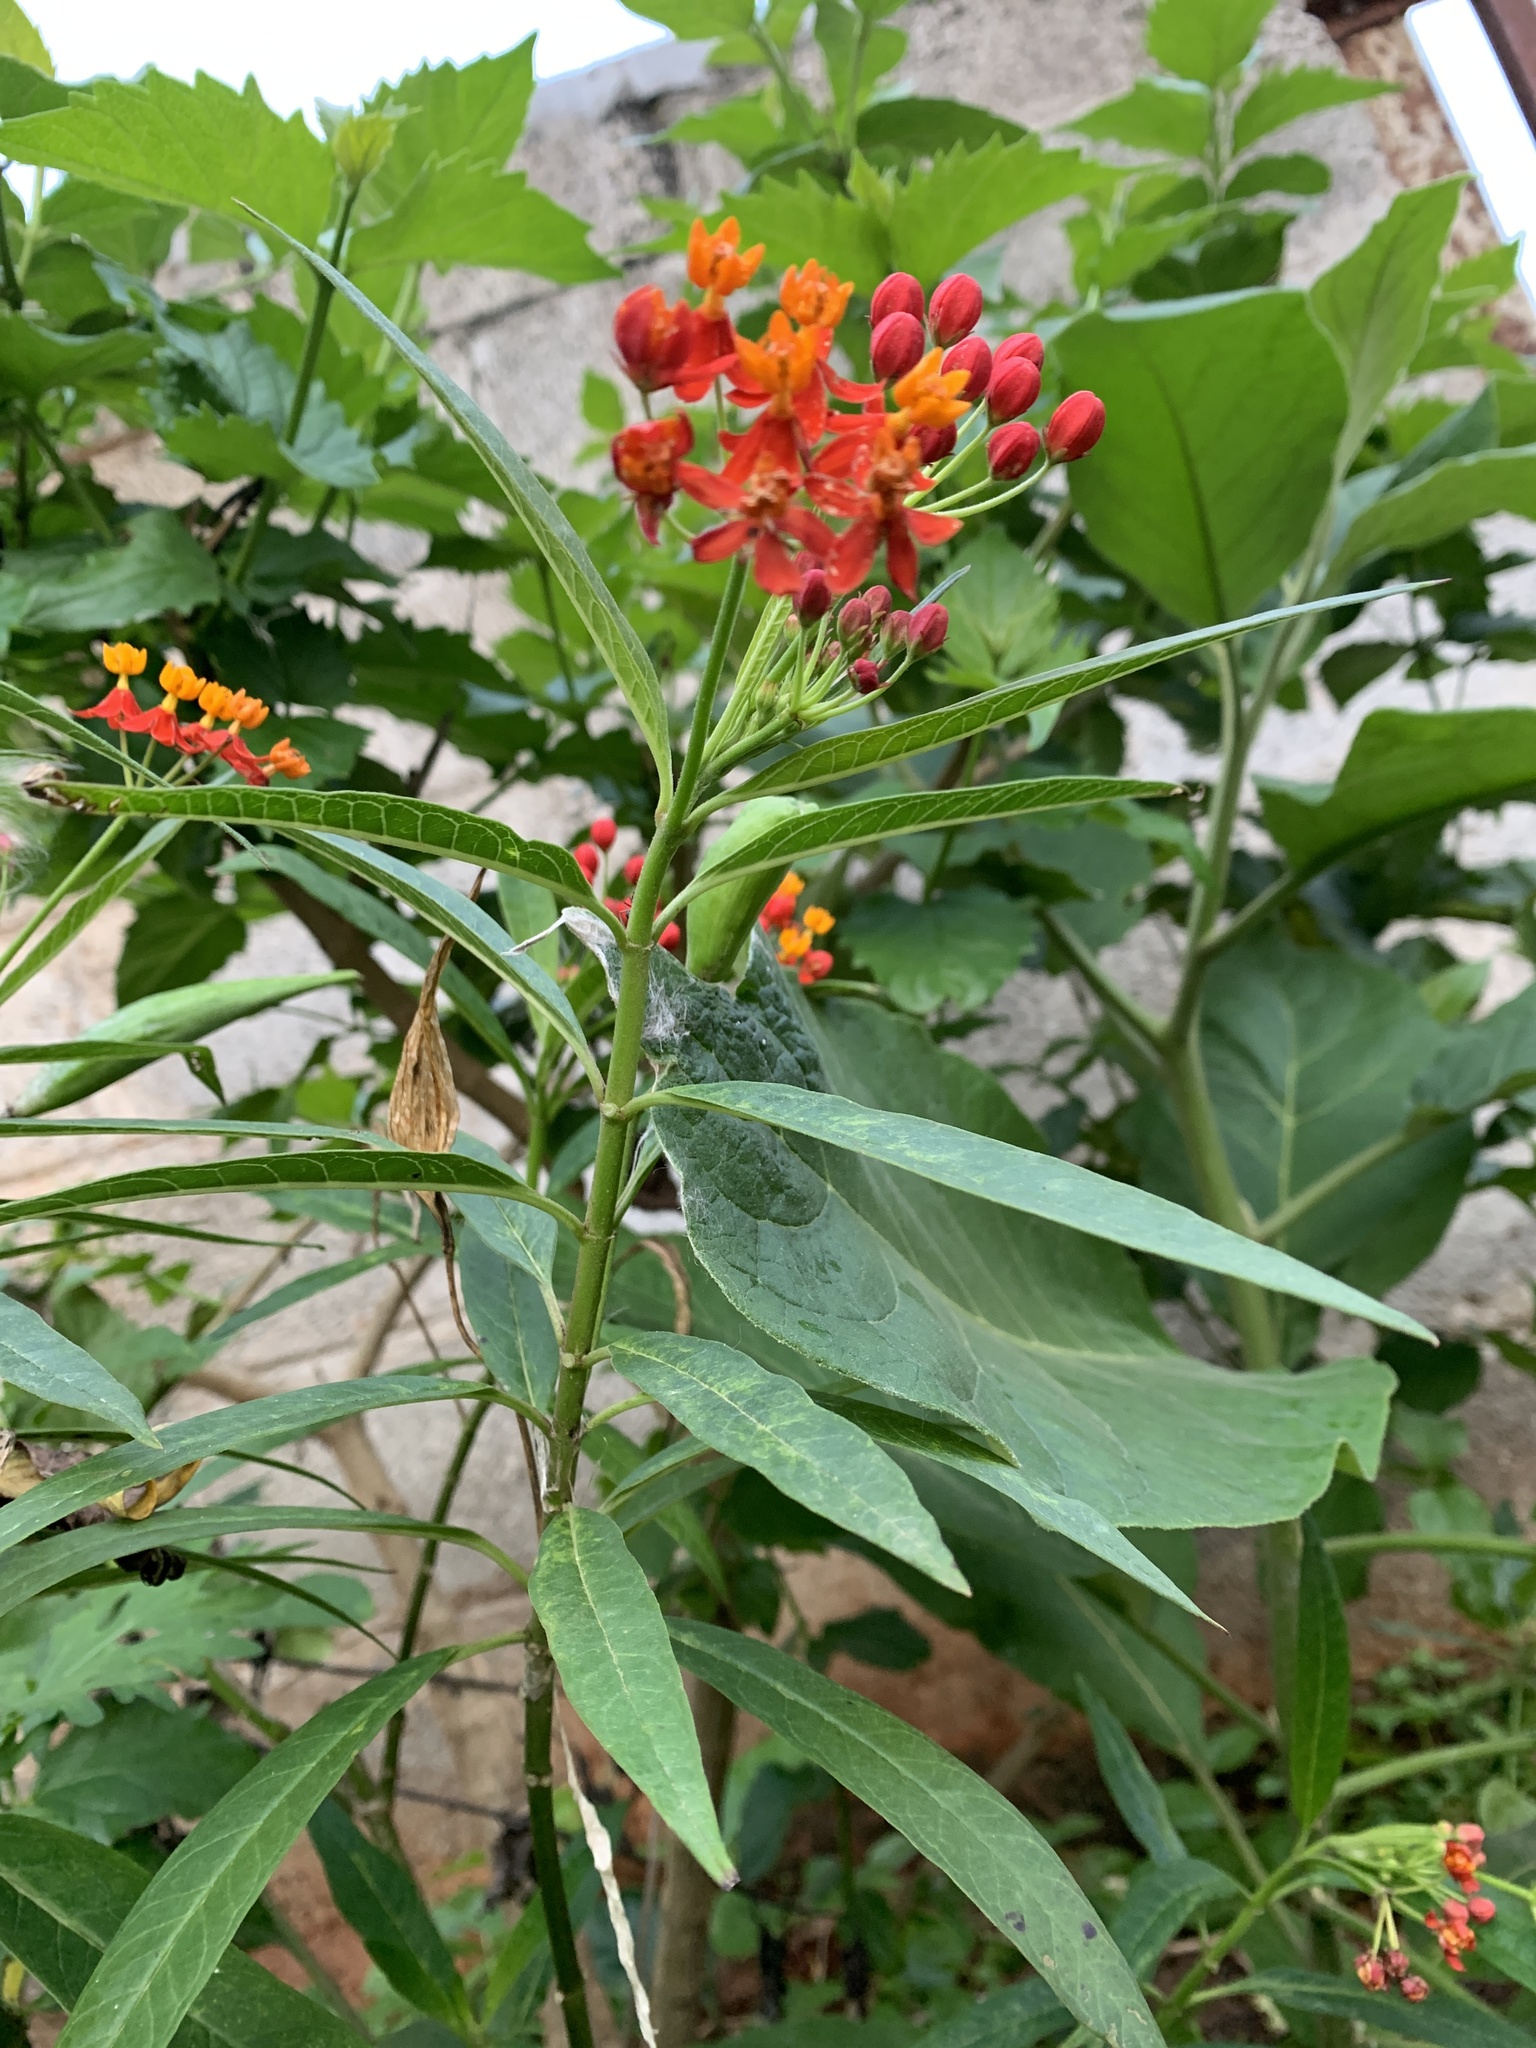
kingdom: Plantae
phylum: Tracheophyta
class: Magnoliopsida
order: Gentianales
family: Apocynaceae
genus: Asclepias
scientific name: Asclepias curassavica
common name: Bloodflower
